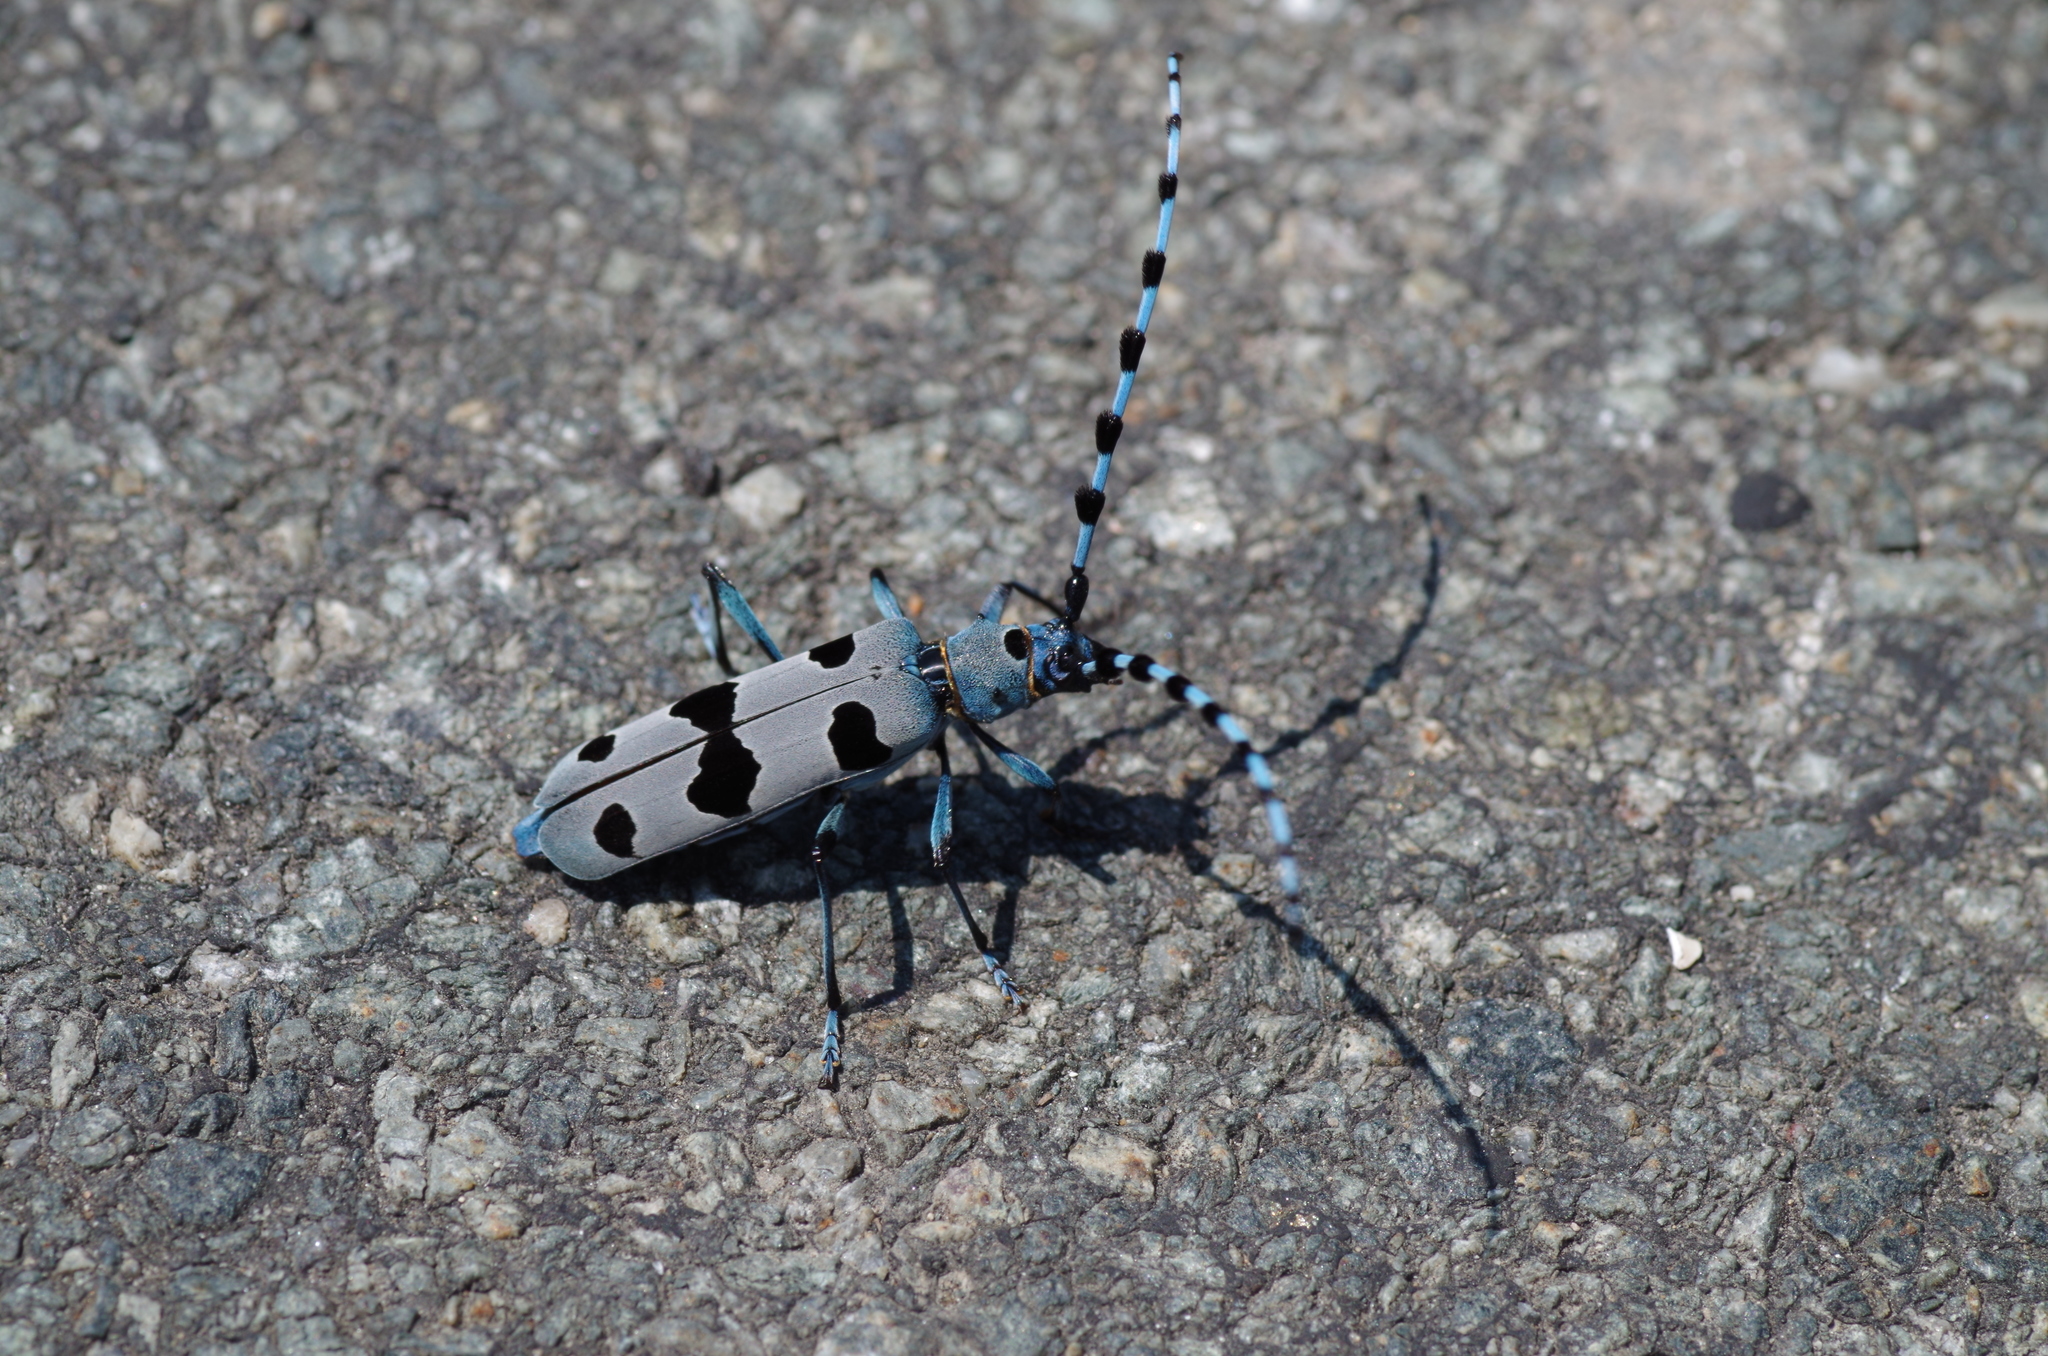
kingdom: Animalia
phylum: Arthropoda
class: Insecta
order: Coleoptera
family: Cerambycidae
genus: Rosalia
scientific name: Rosalia alpina
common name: Rosalia longicorn
